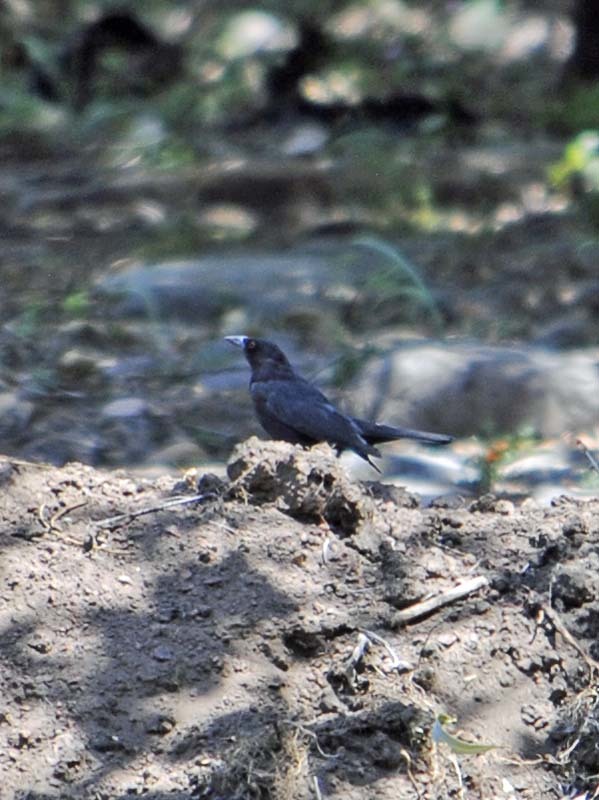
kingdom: Animalia
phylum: Chordata
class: Aves
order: Passeriformes
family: Icteridae
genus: Molothrus
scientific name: Molothrus aeneus
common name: Bronzed cowbird
